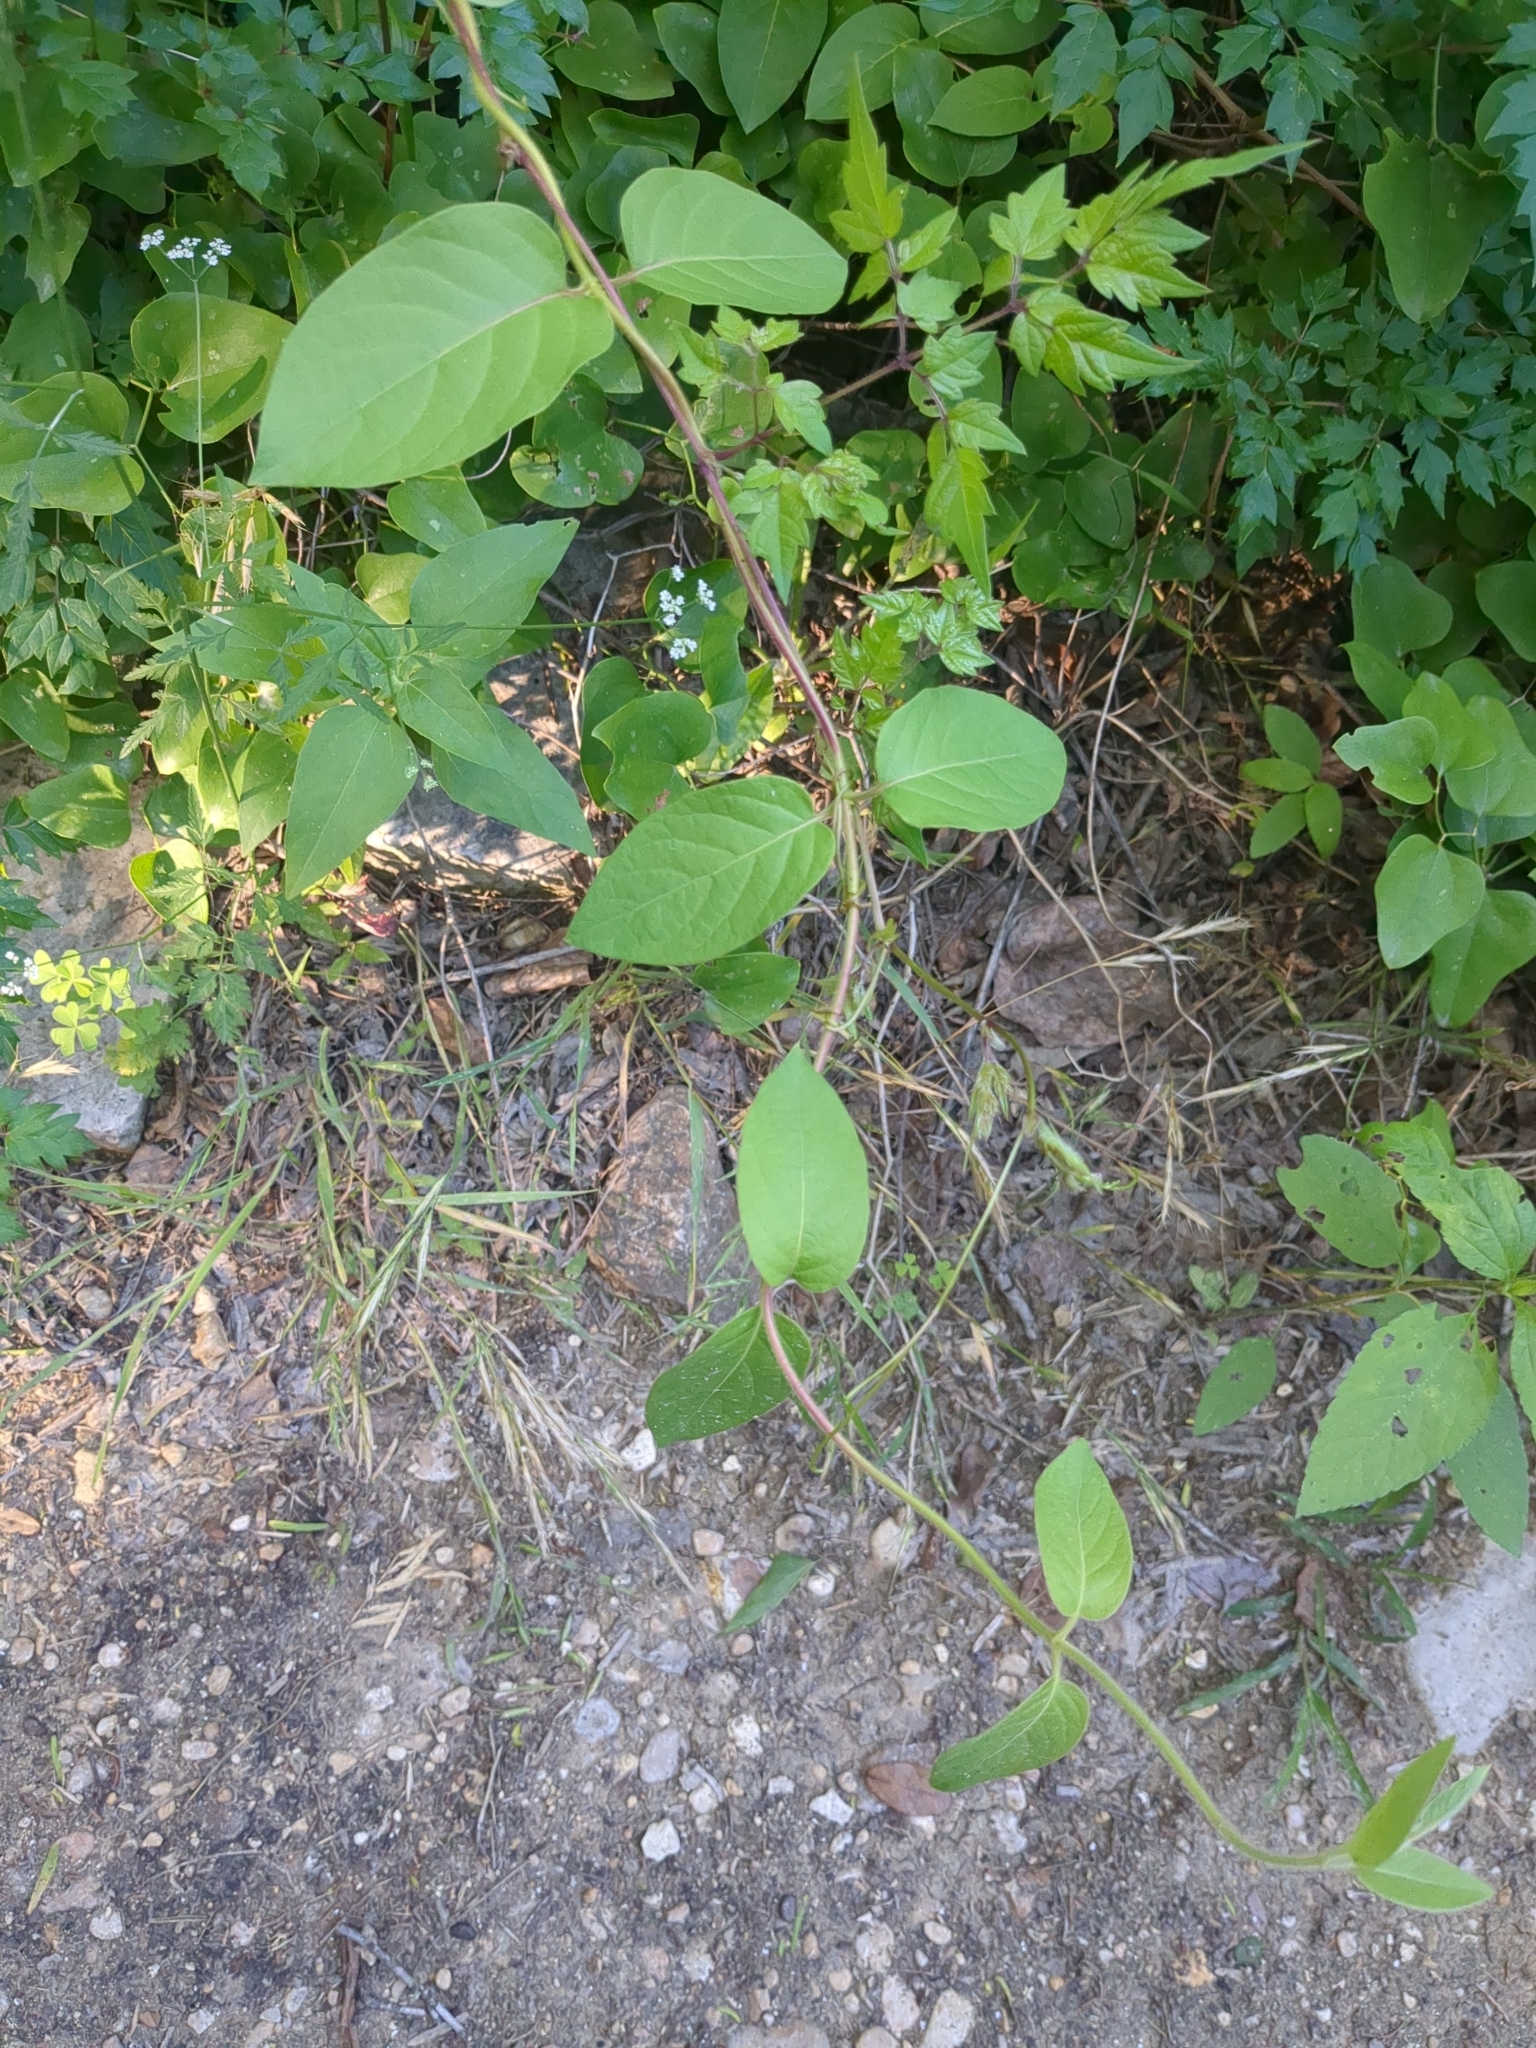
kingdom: Plantae
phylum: Tracheophyta
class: Magnoliopsida
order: Dipsacales
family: Caprifoliaceae
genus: Lonicera
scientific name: Lonicera japonica
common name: Japanese honeysuckle
